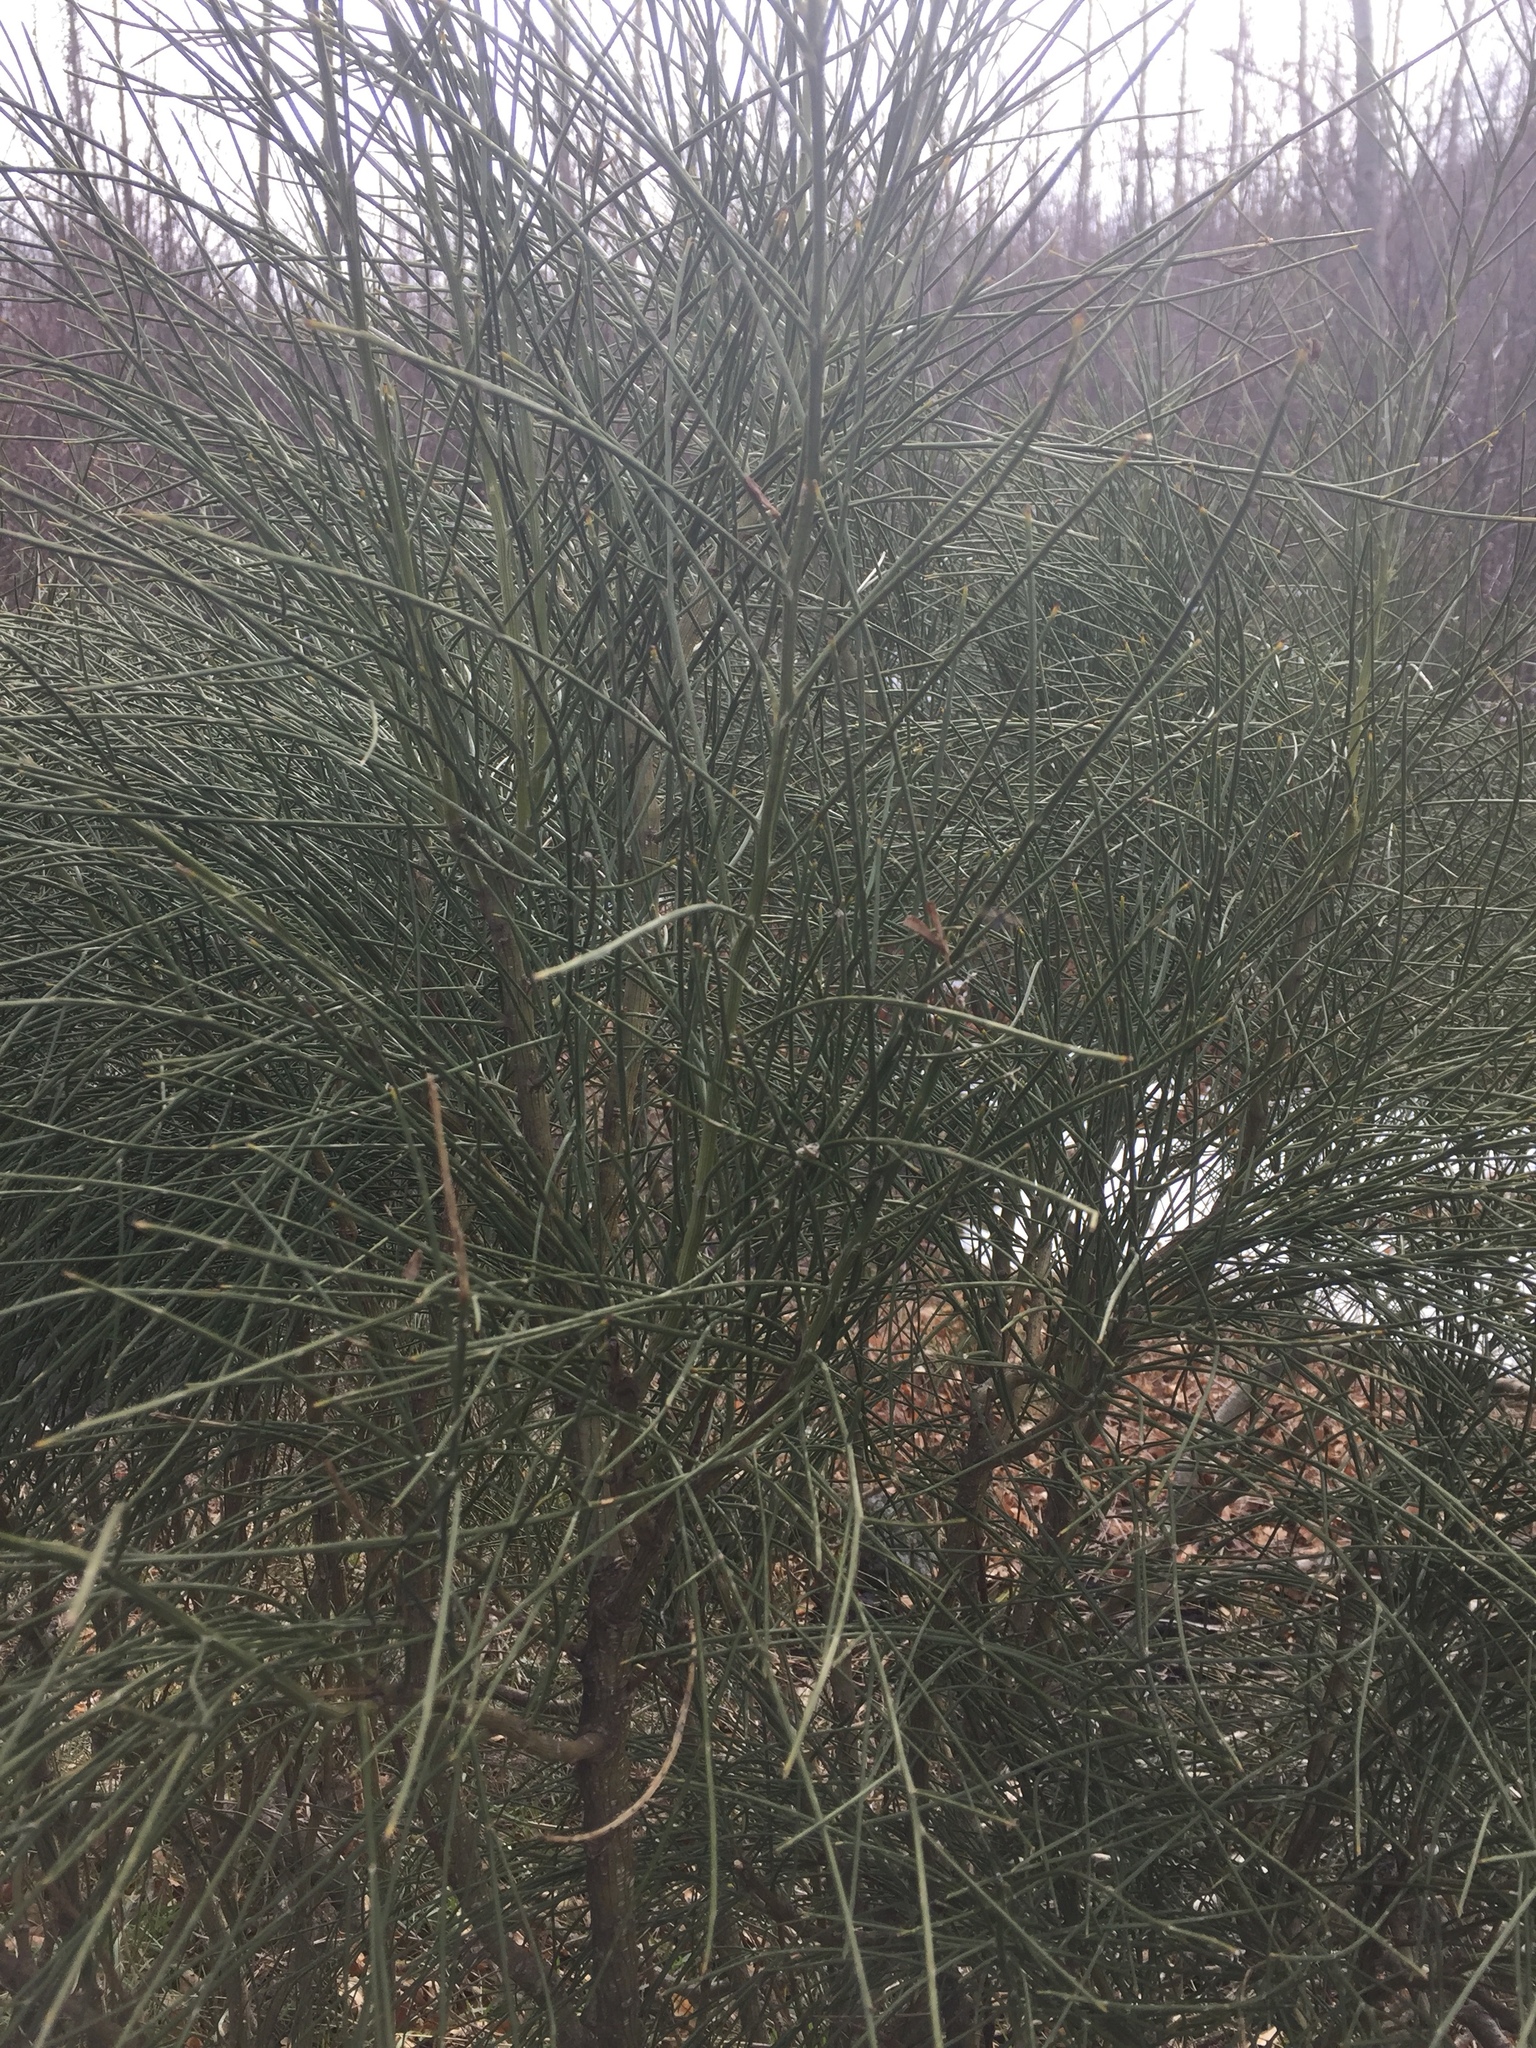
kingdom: Plantae
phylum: Tracheophyta
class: Magnoliopsida
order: Fabales
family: Fabaceae
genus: Spartium
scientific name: Spartium junceum
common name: Spanish broom
